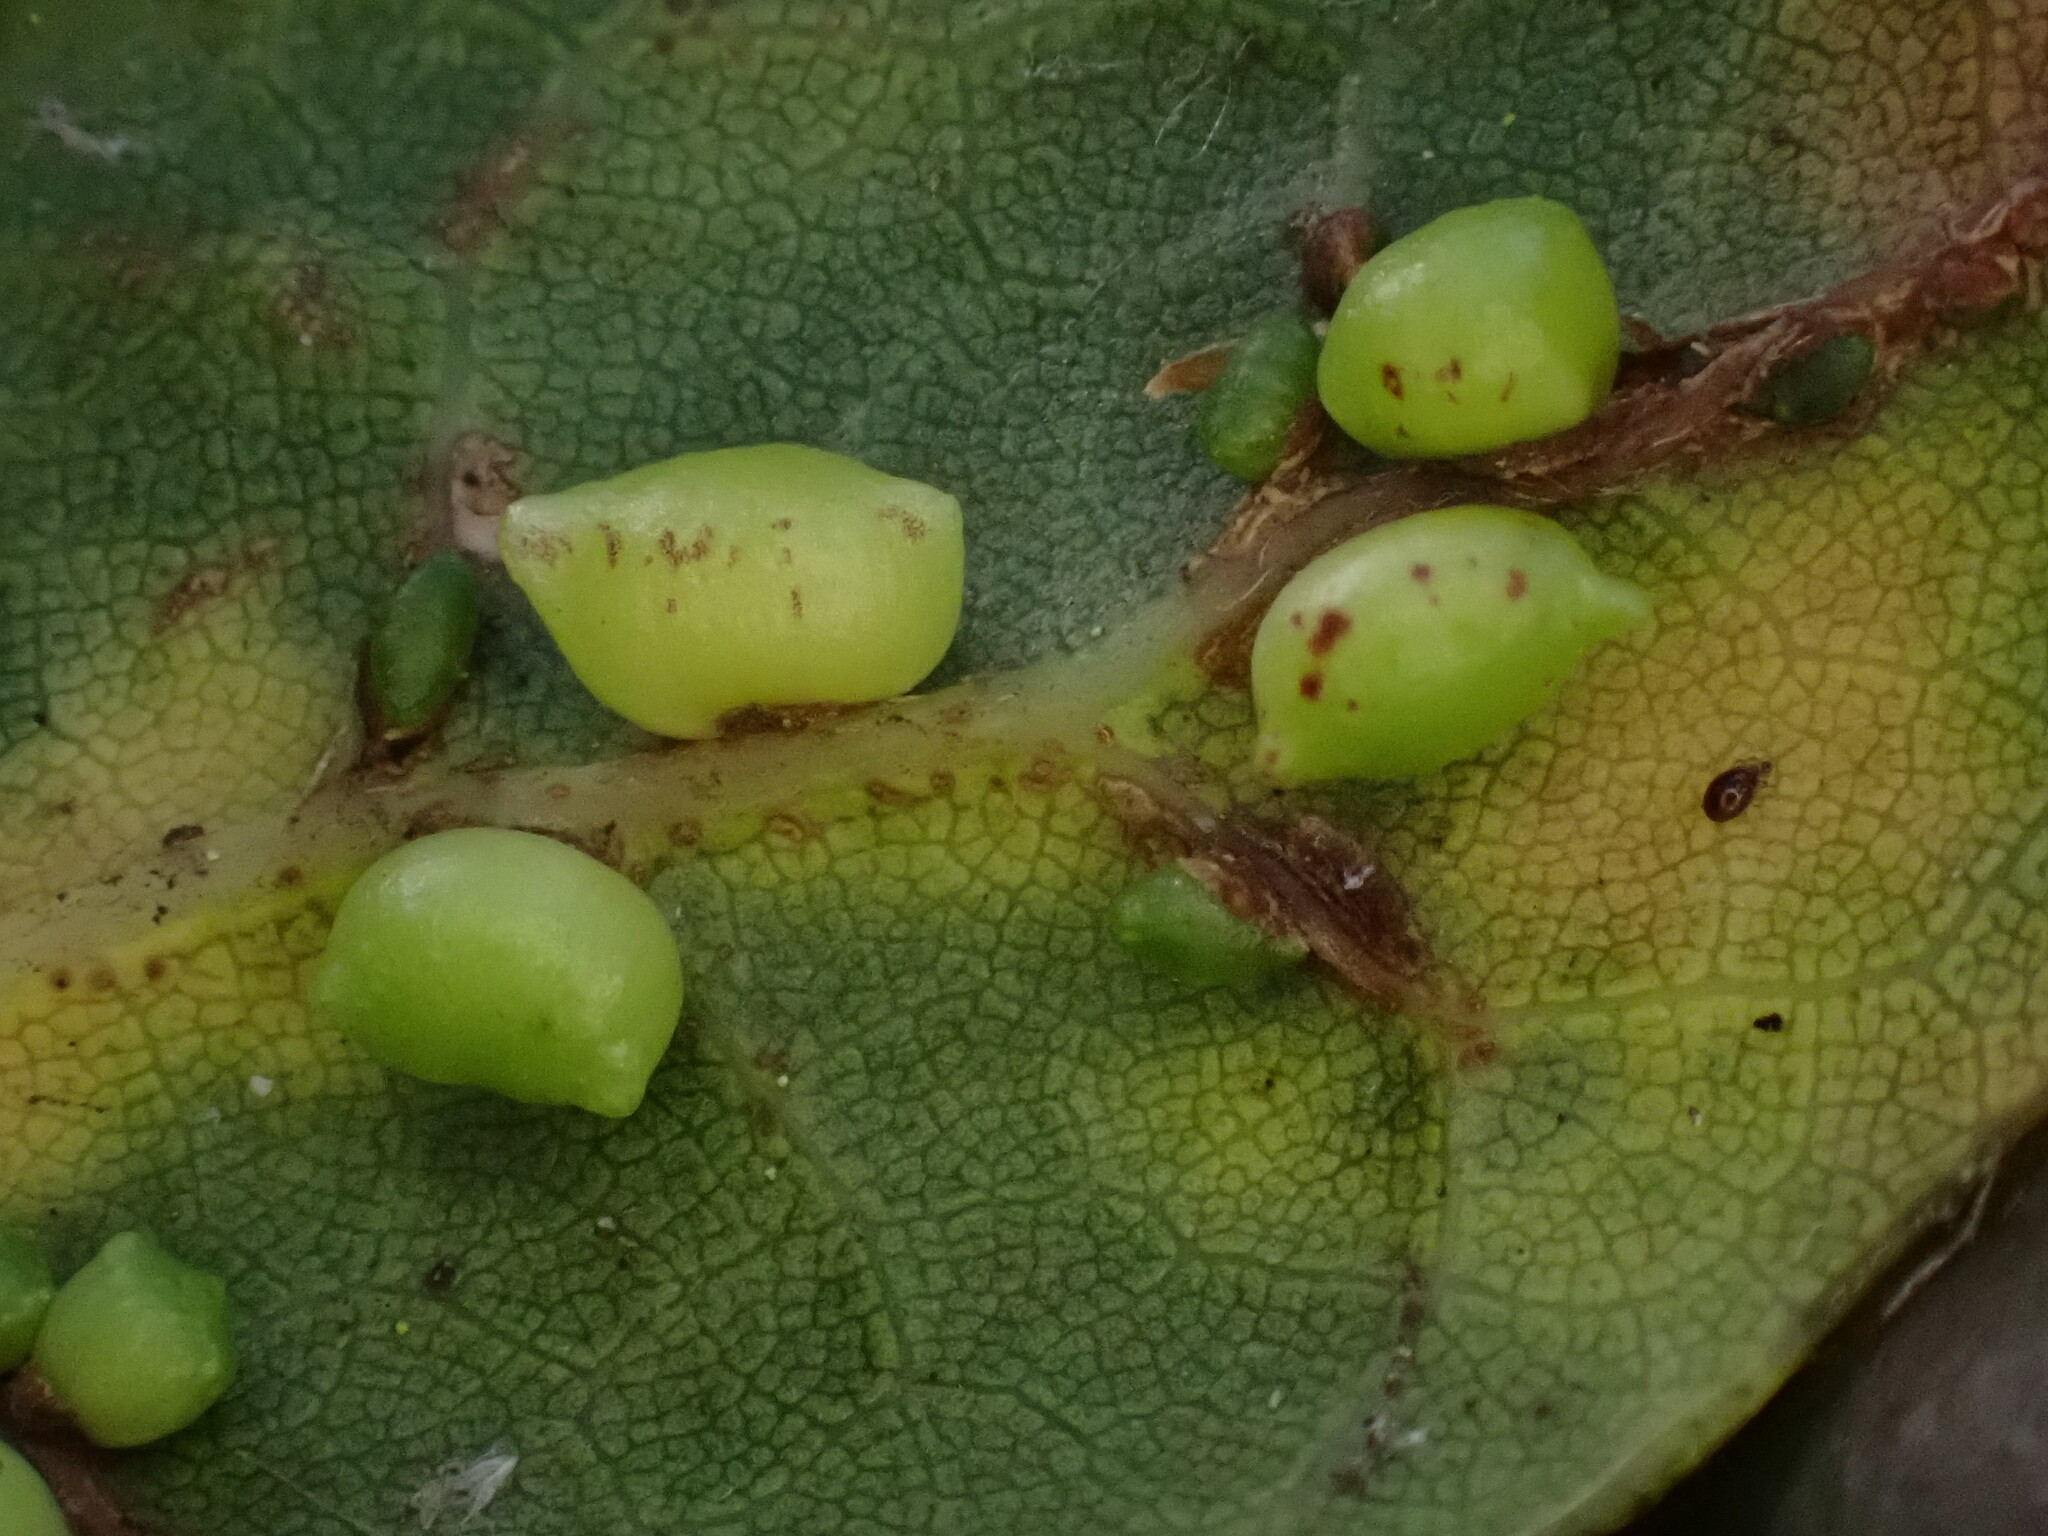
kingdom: Animalia
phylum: Arthropoda
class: Insecta
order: Hymenoptera
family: Cynipidae
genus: Dryocosmus
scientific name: Dryocosmus
